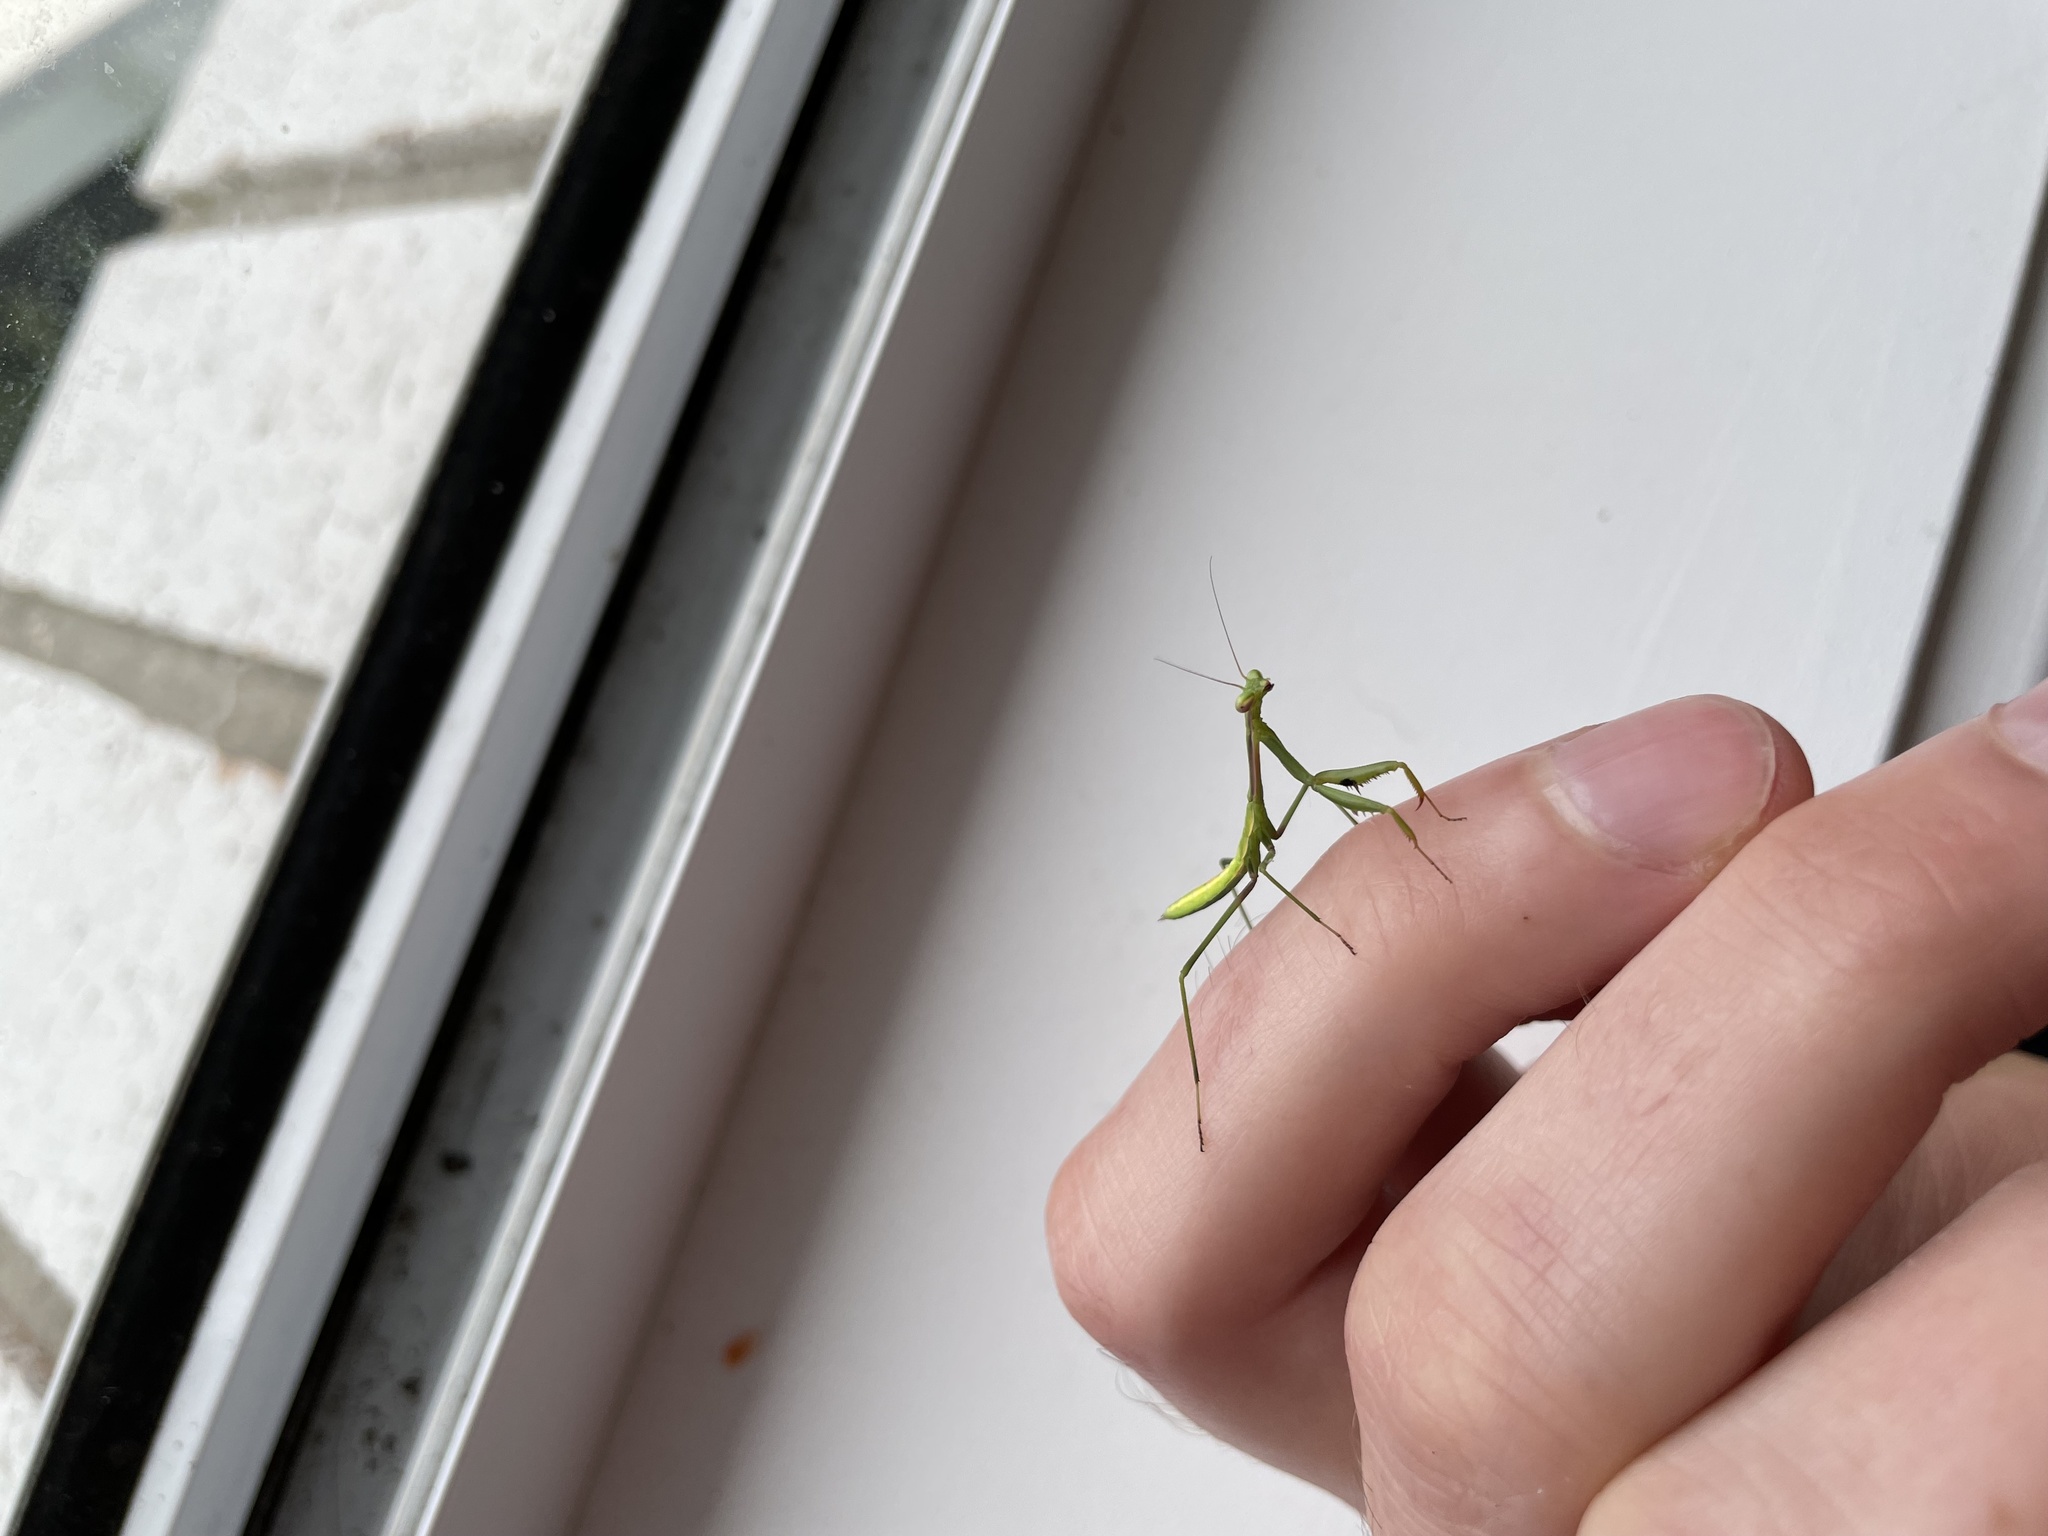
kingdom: Animalia
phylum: Arthropoda
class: Insecta
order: Mantodea
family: Mantidae
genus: Pseudomantis
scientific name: Pseudomantis albofimbriata
